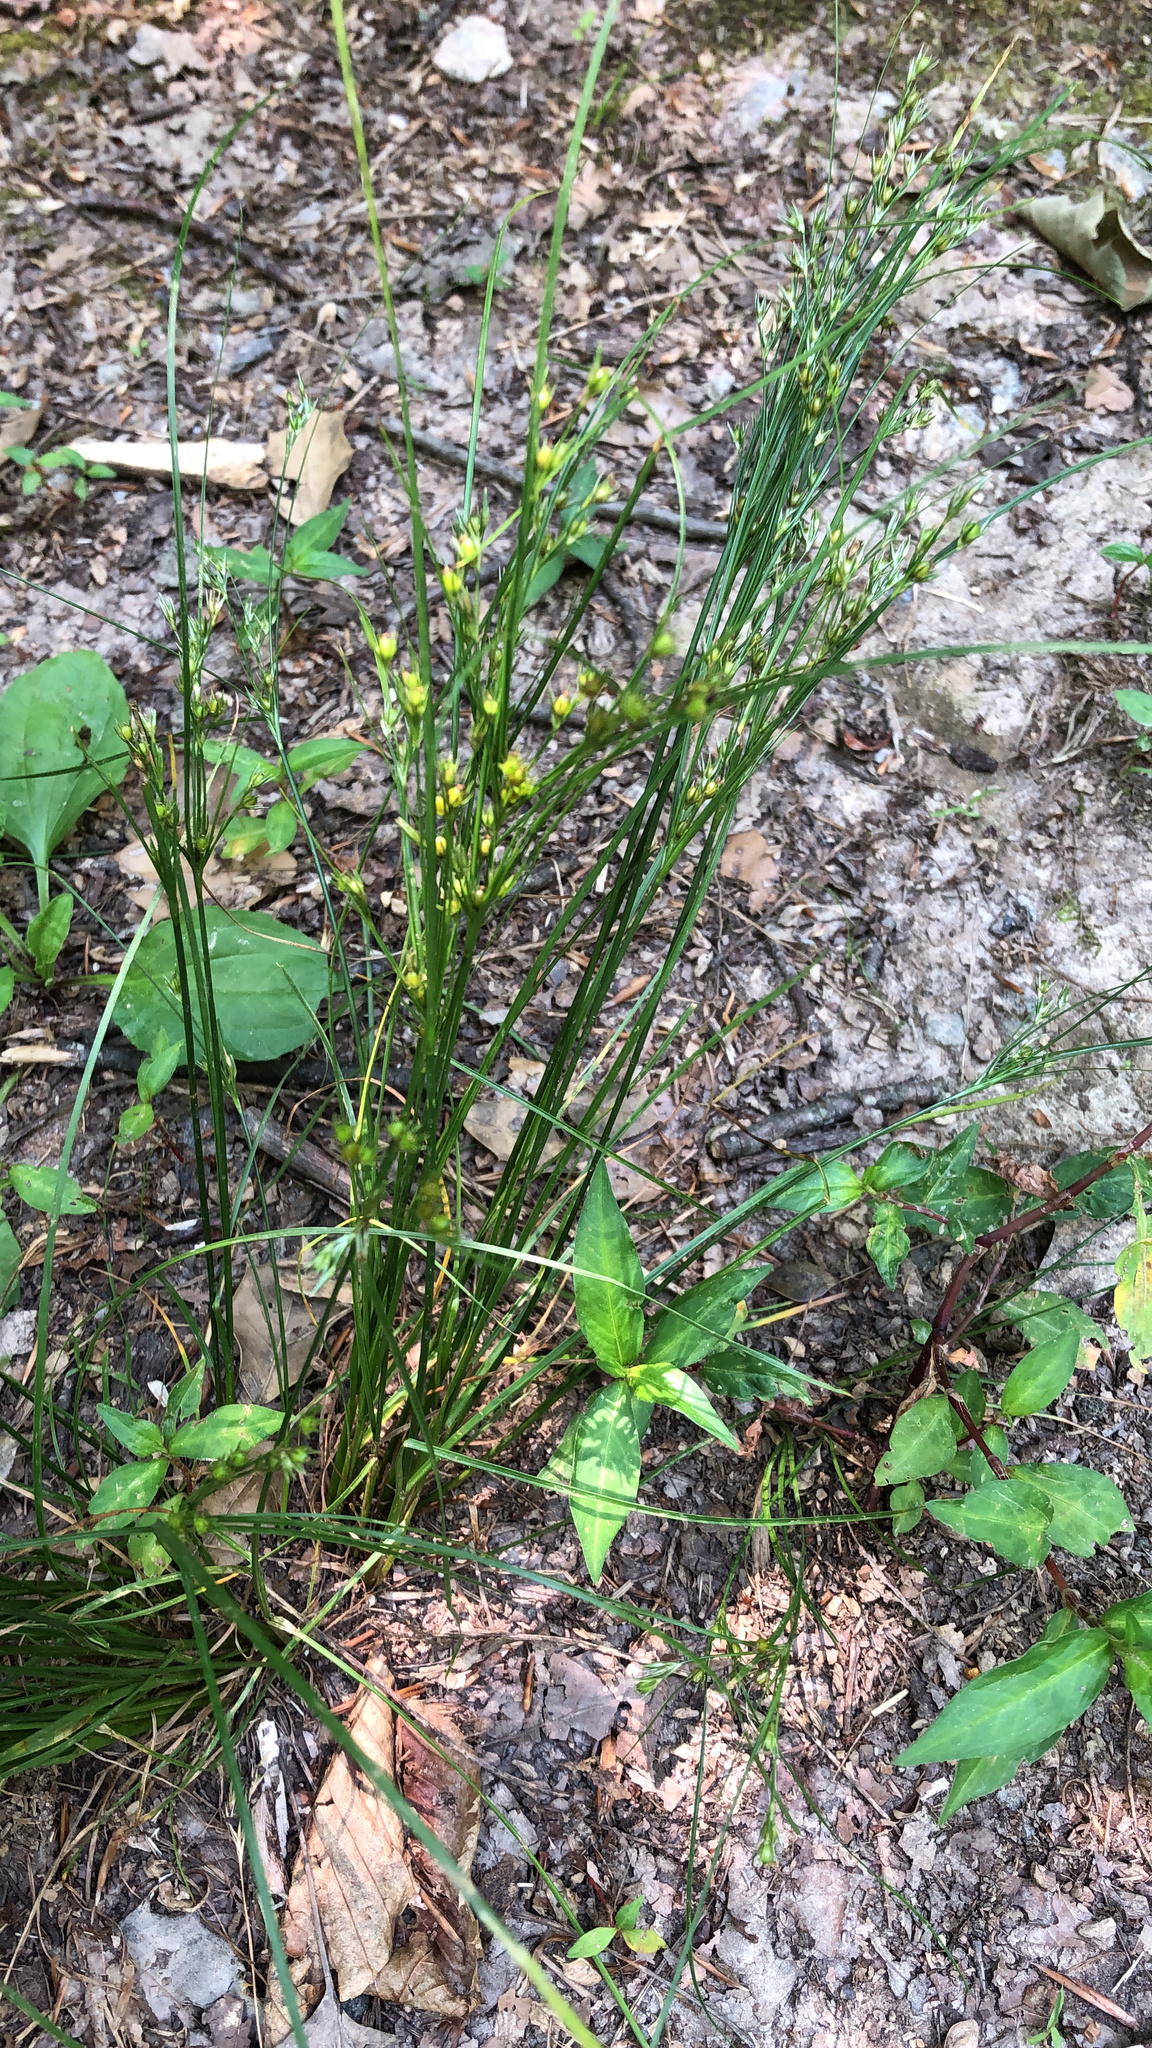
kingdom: Plantae
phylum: Tracheophyta
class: Liliopsida
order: Poales
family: Juncaceae
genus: Juncus
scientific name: Juncus tenuis
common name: Slender rush
